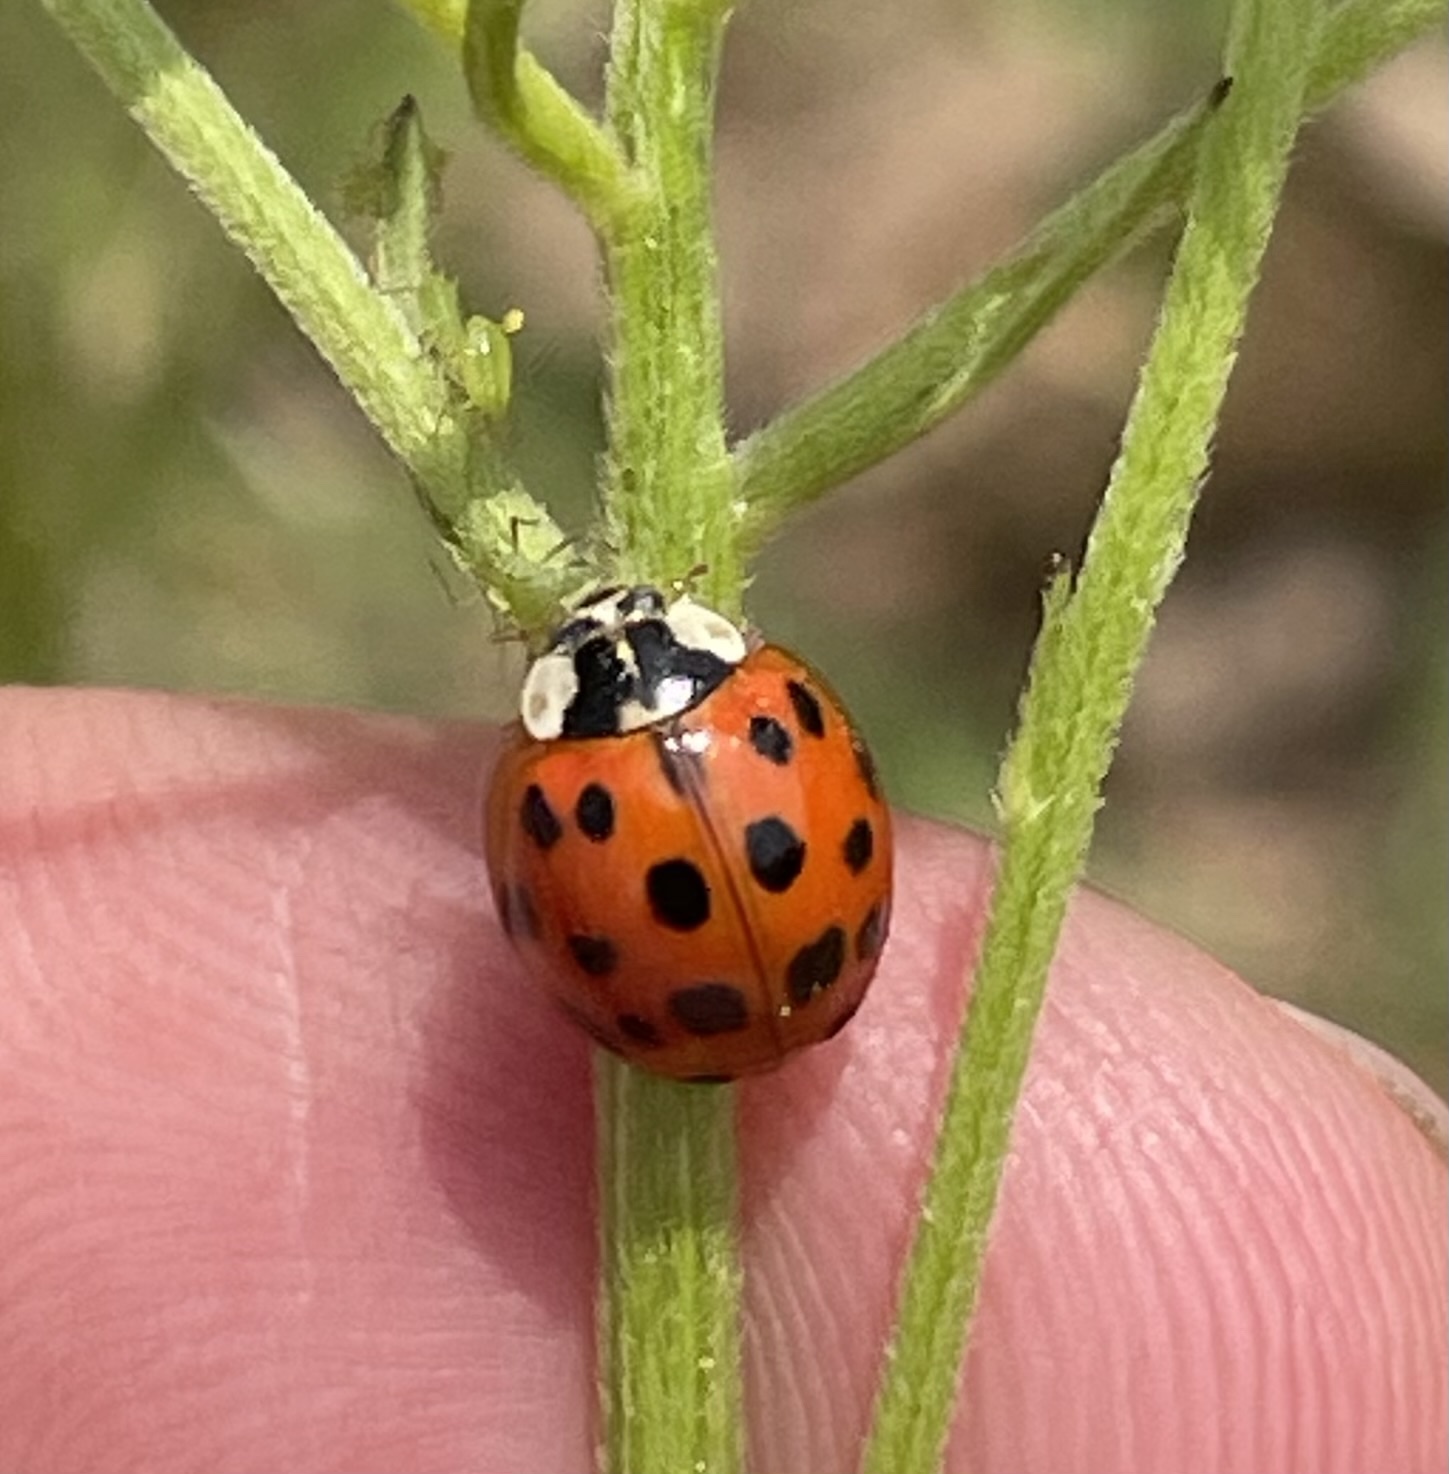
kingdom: Animalia
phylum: Arthropoda
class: Insecta
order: Coleoptera
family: Coccinellidae
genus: Harmonia
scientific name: Harmonia axyridis
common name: Harlequin ladybird
